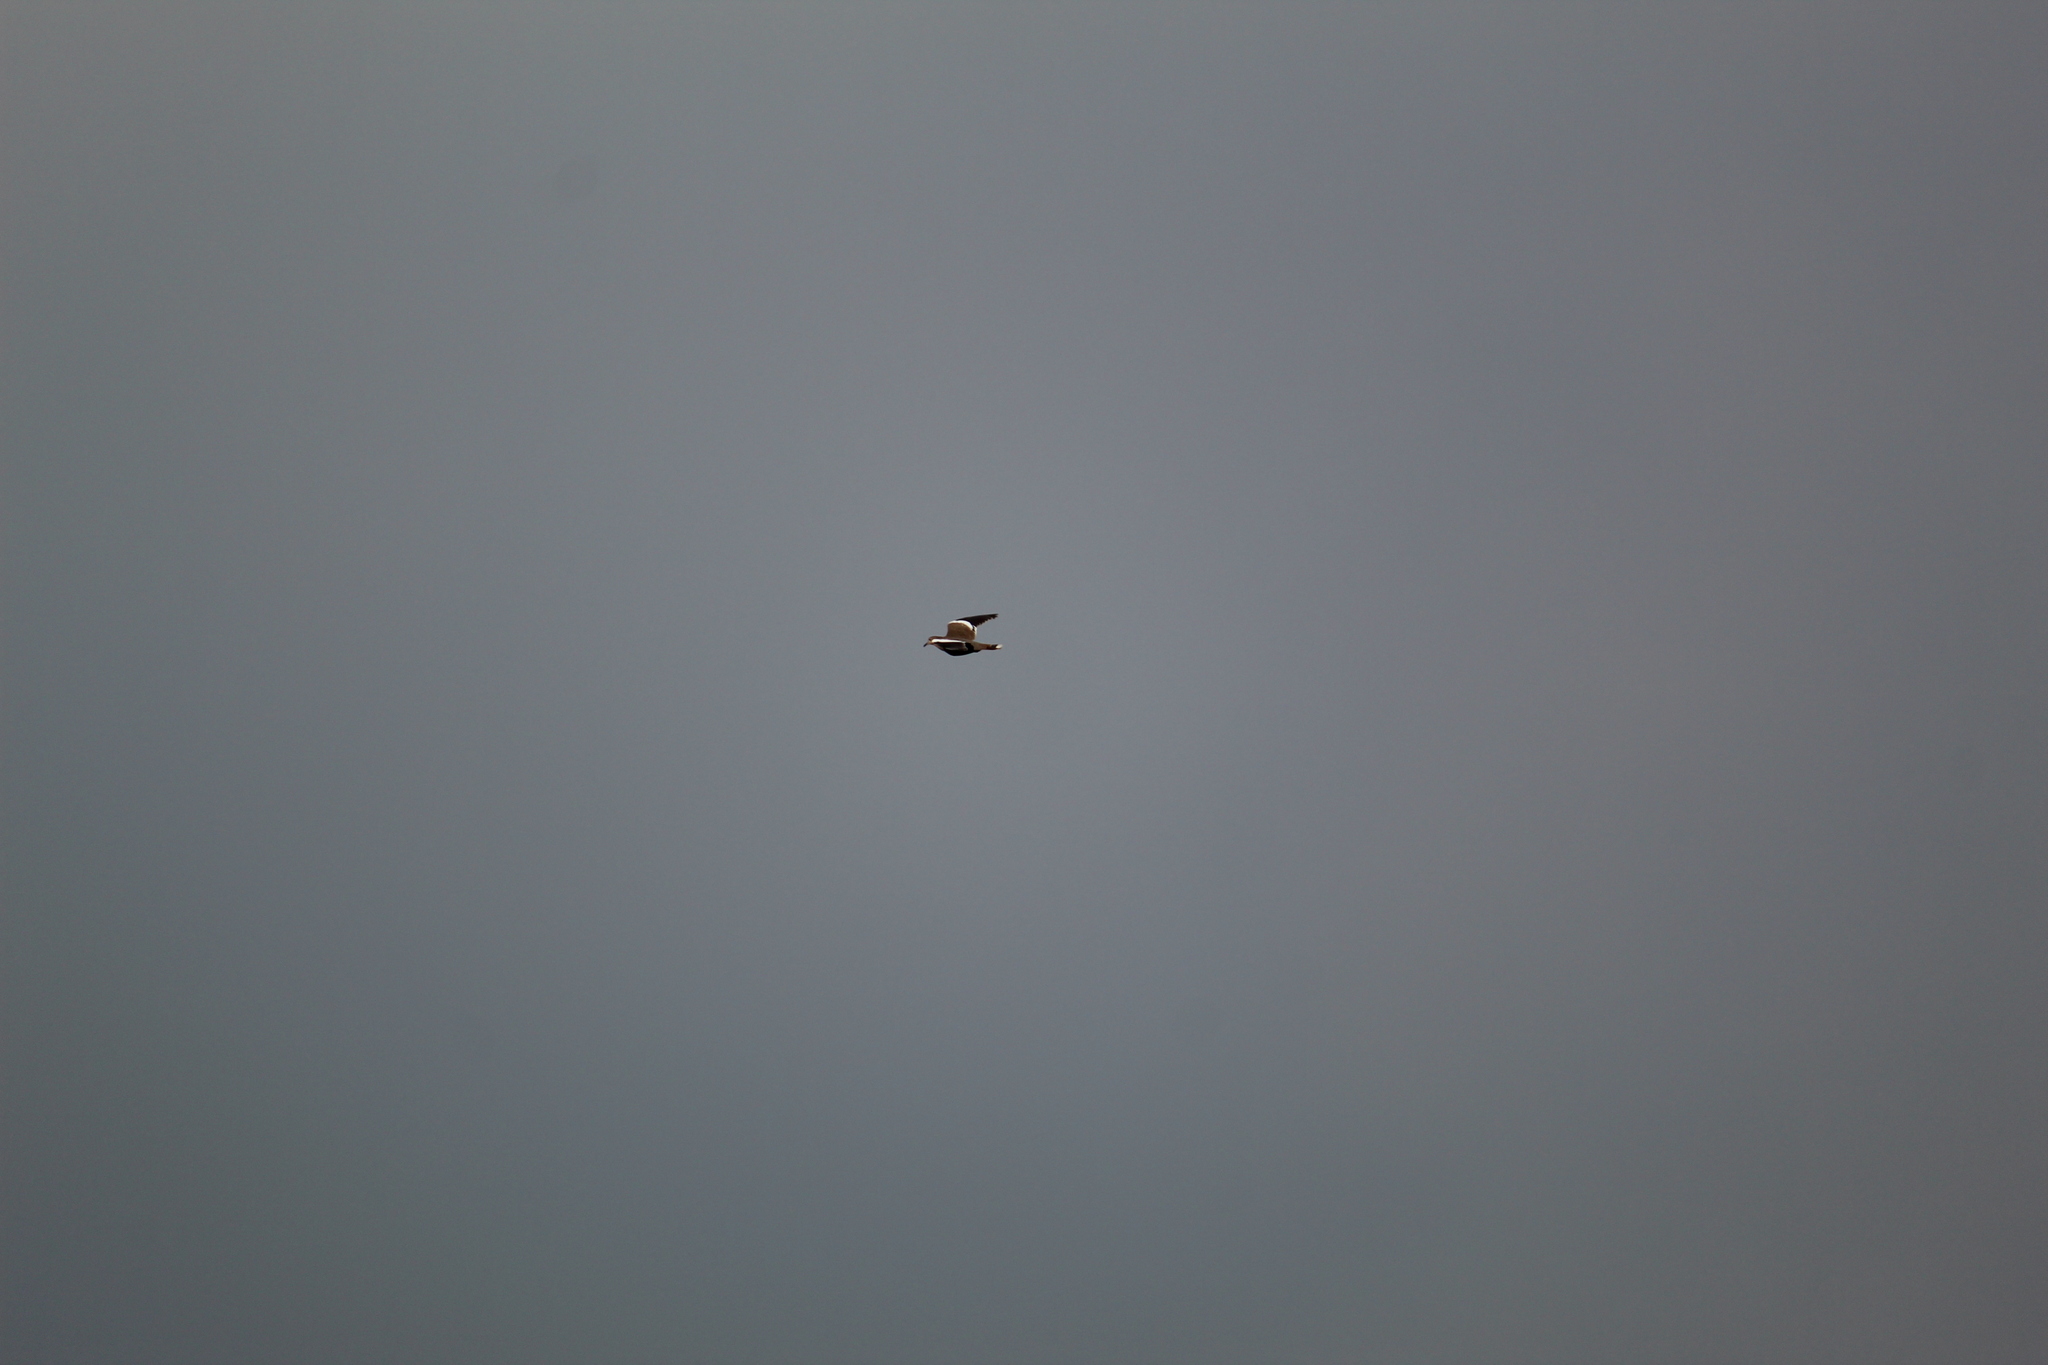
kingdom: Animalia
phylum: Chordata
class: Aves
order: Columbiformes
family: Columbidae
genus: Zenaida
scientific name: Zenaida asiatica
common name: White-winged dove
